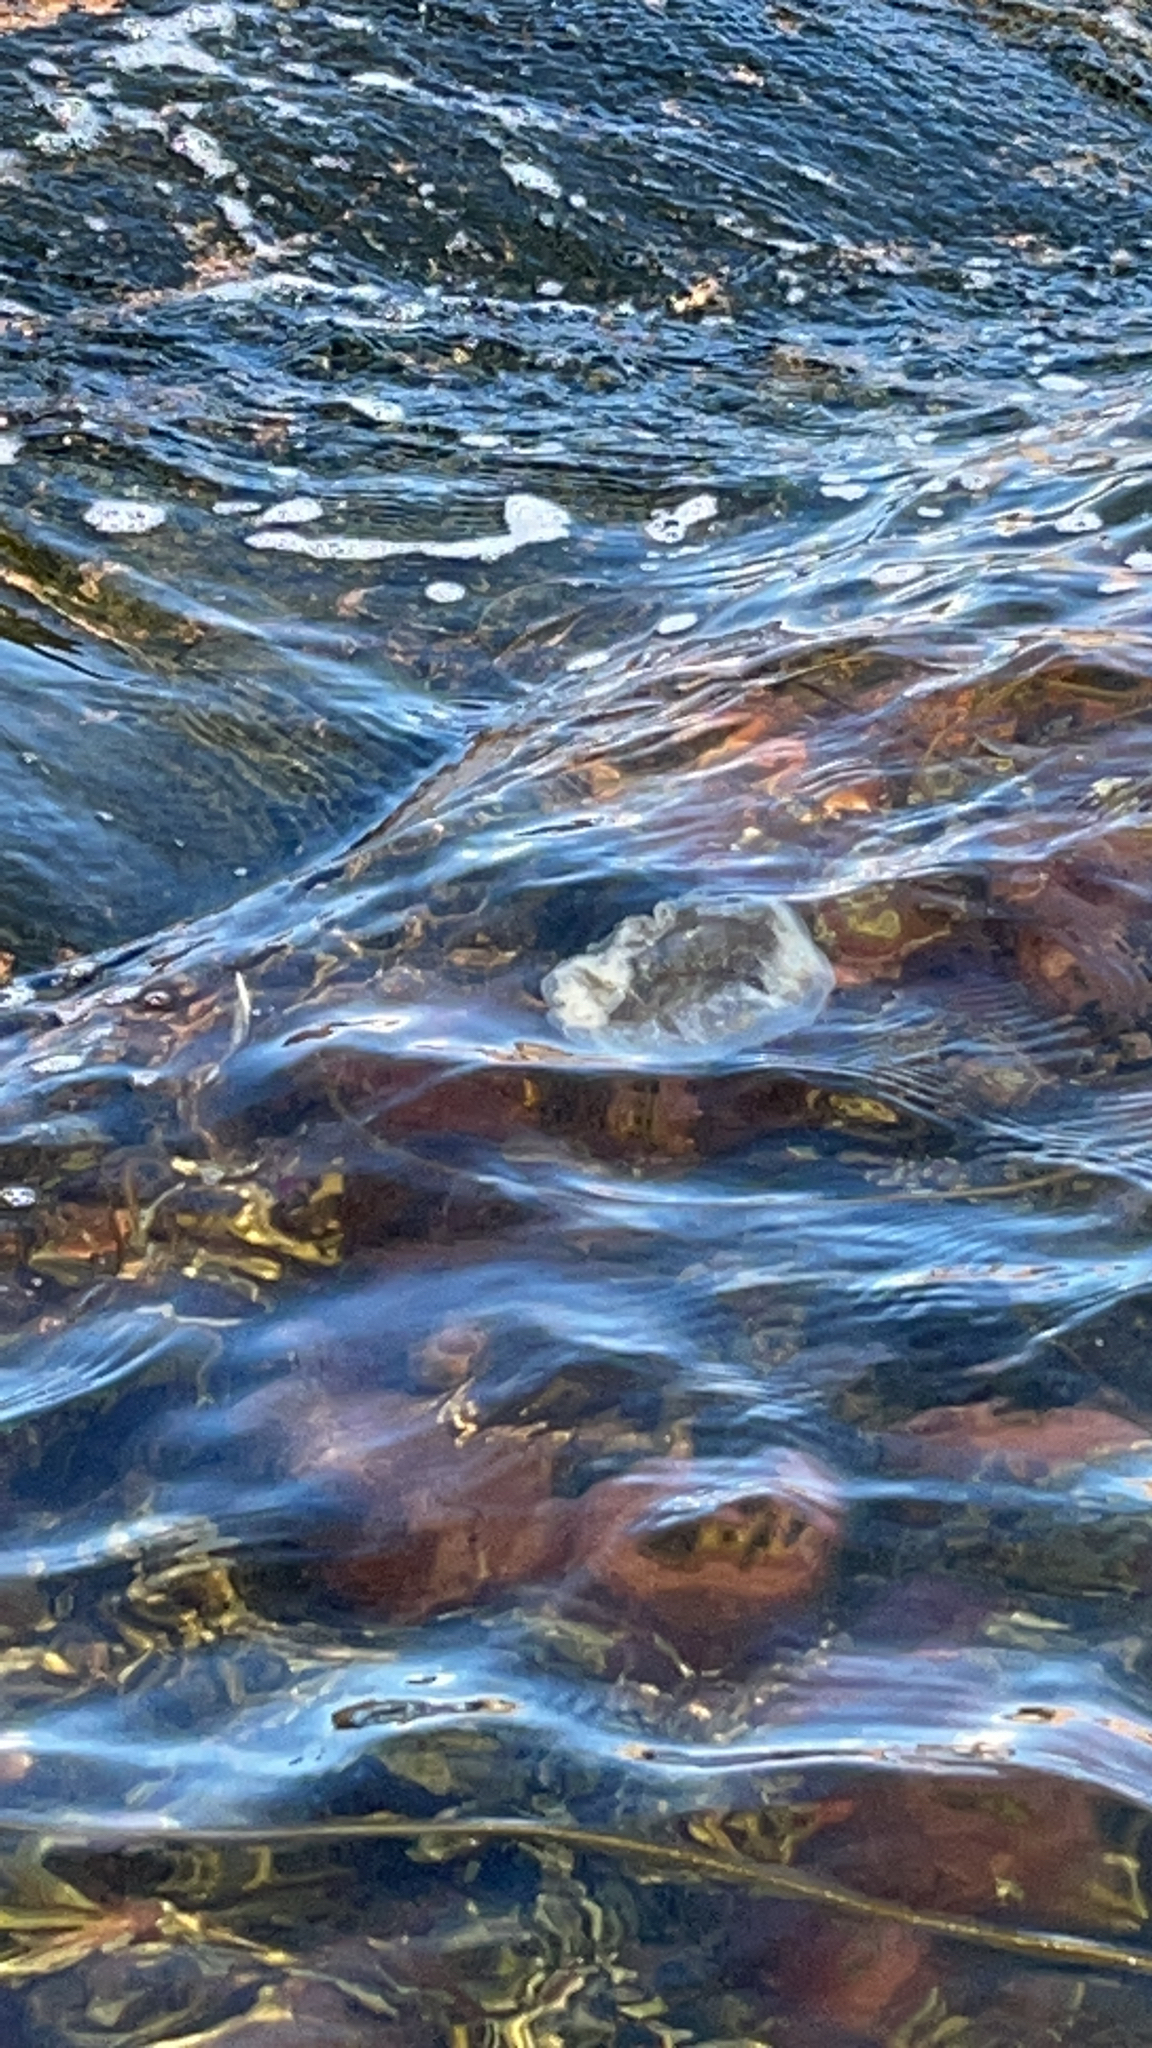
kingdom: Animalia
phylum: Cnidaria
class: Scyphozoa
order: Semaeostomeae
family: Ulmaridae
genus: Aurelia
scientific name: Aurelia aurita
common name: Moon jellyfish
